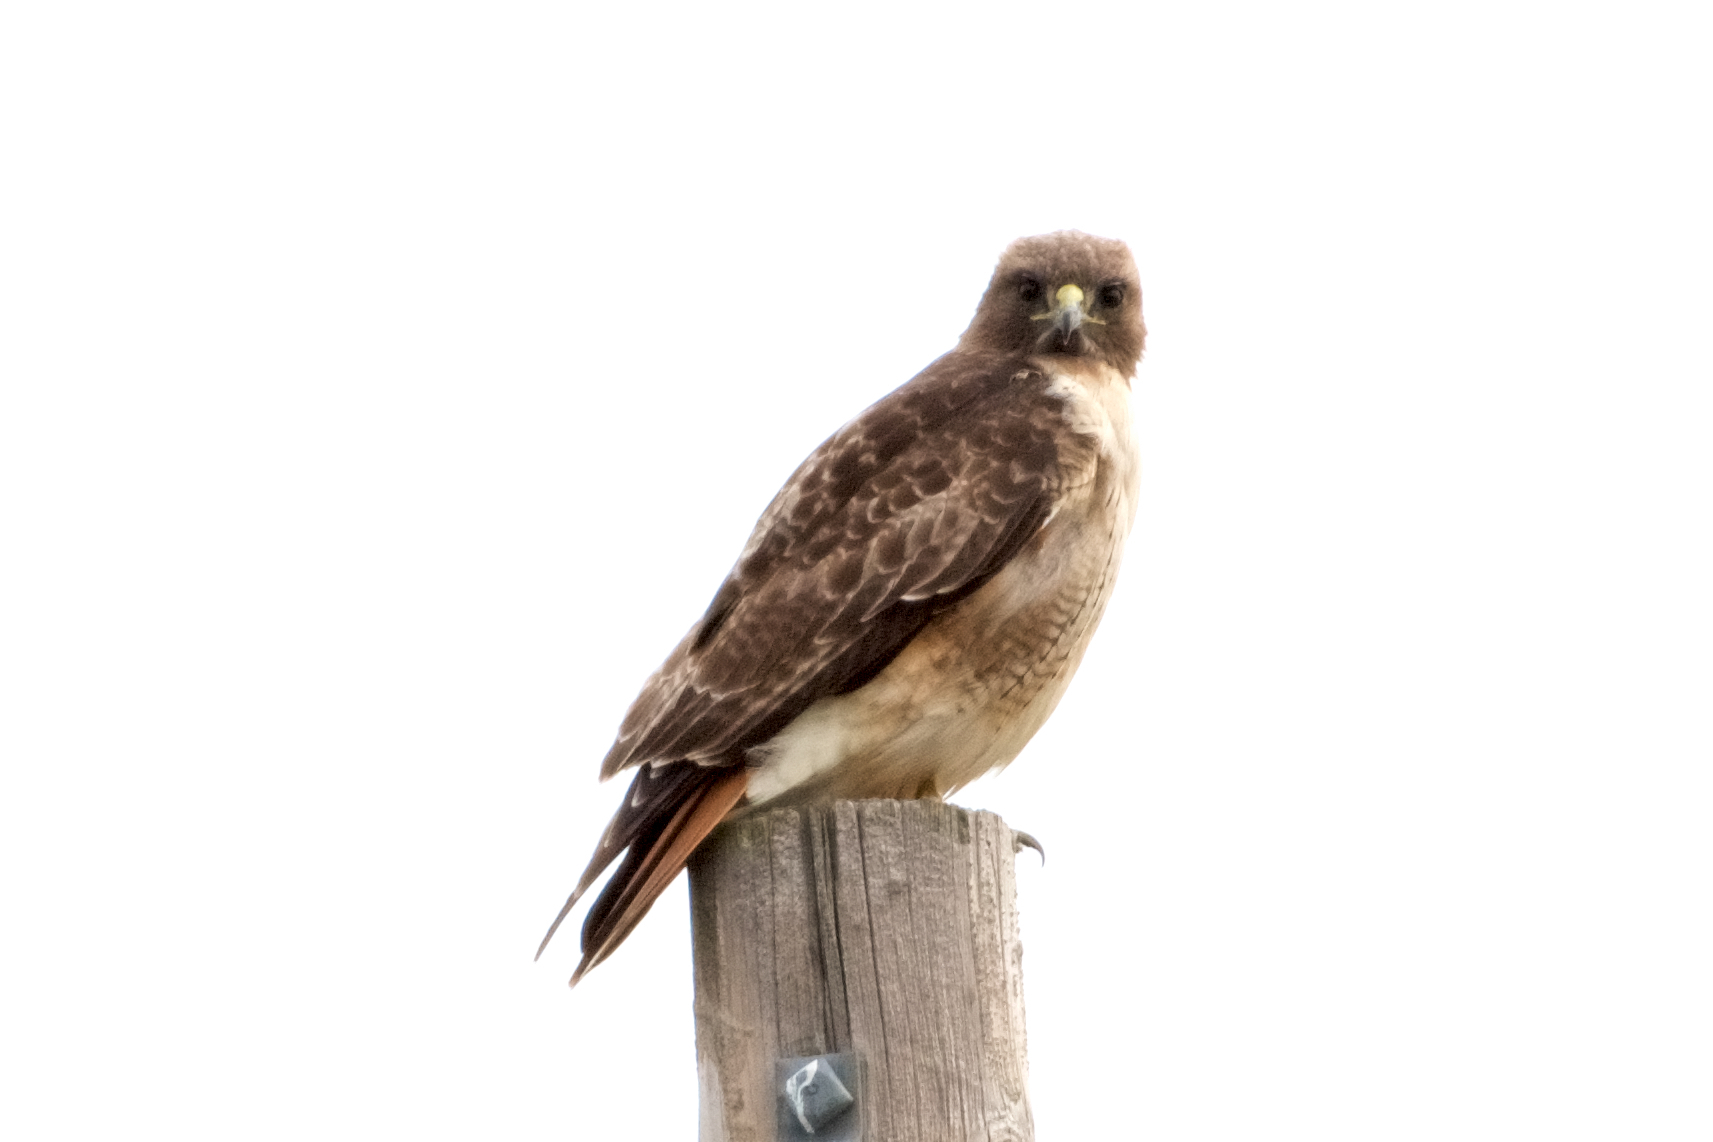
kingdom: Animalia
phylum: Chordata
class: Aves
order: Accipitriformes
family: Accipitridae
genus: Buteo
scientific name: Buteo jamaicensis
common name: Red-tailed hawk
